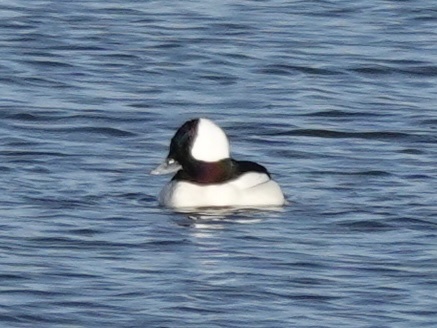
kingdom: Animalia
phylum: Chordata
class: Aves
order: Anseriformes
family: Anatidae
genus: Bucephala
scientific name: Bucephala albeola
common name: Bufflehead
